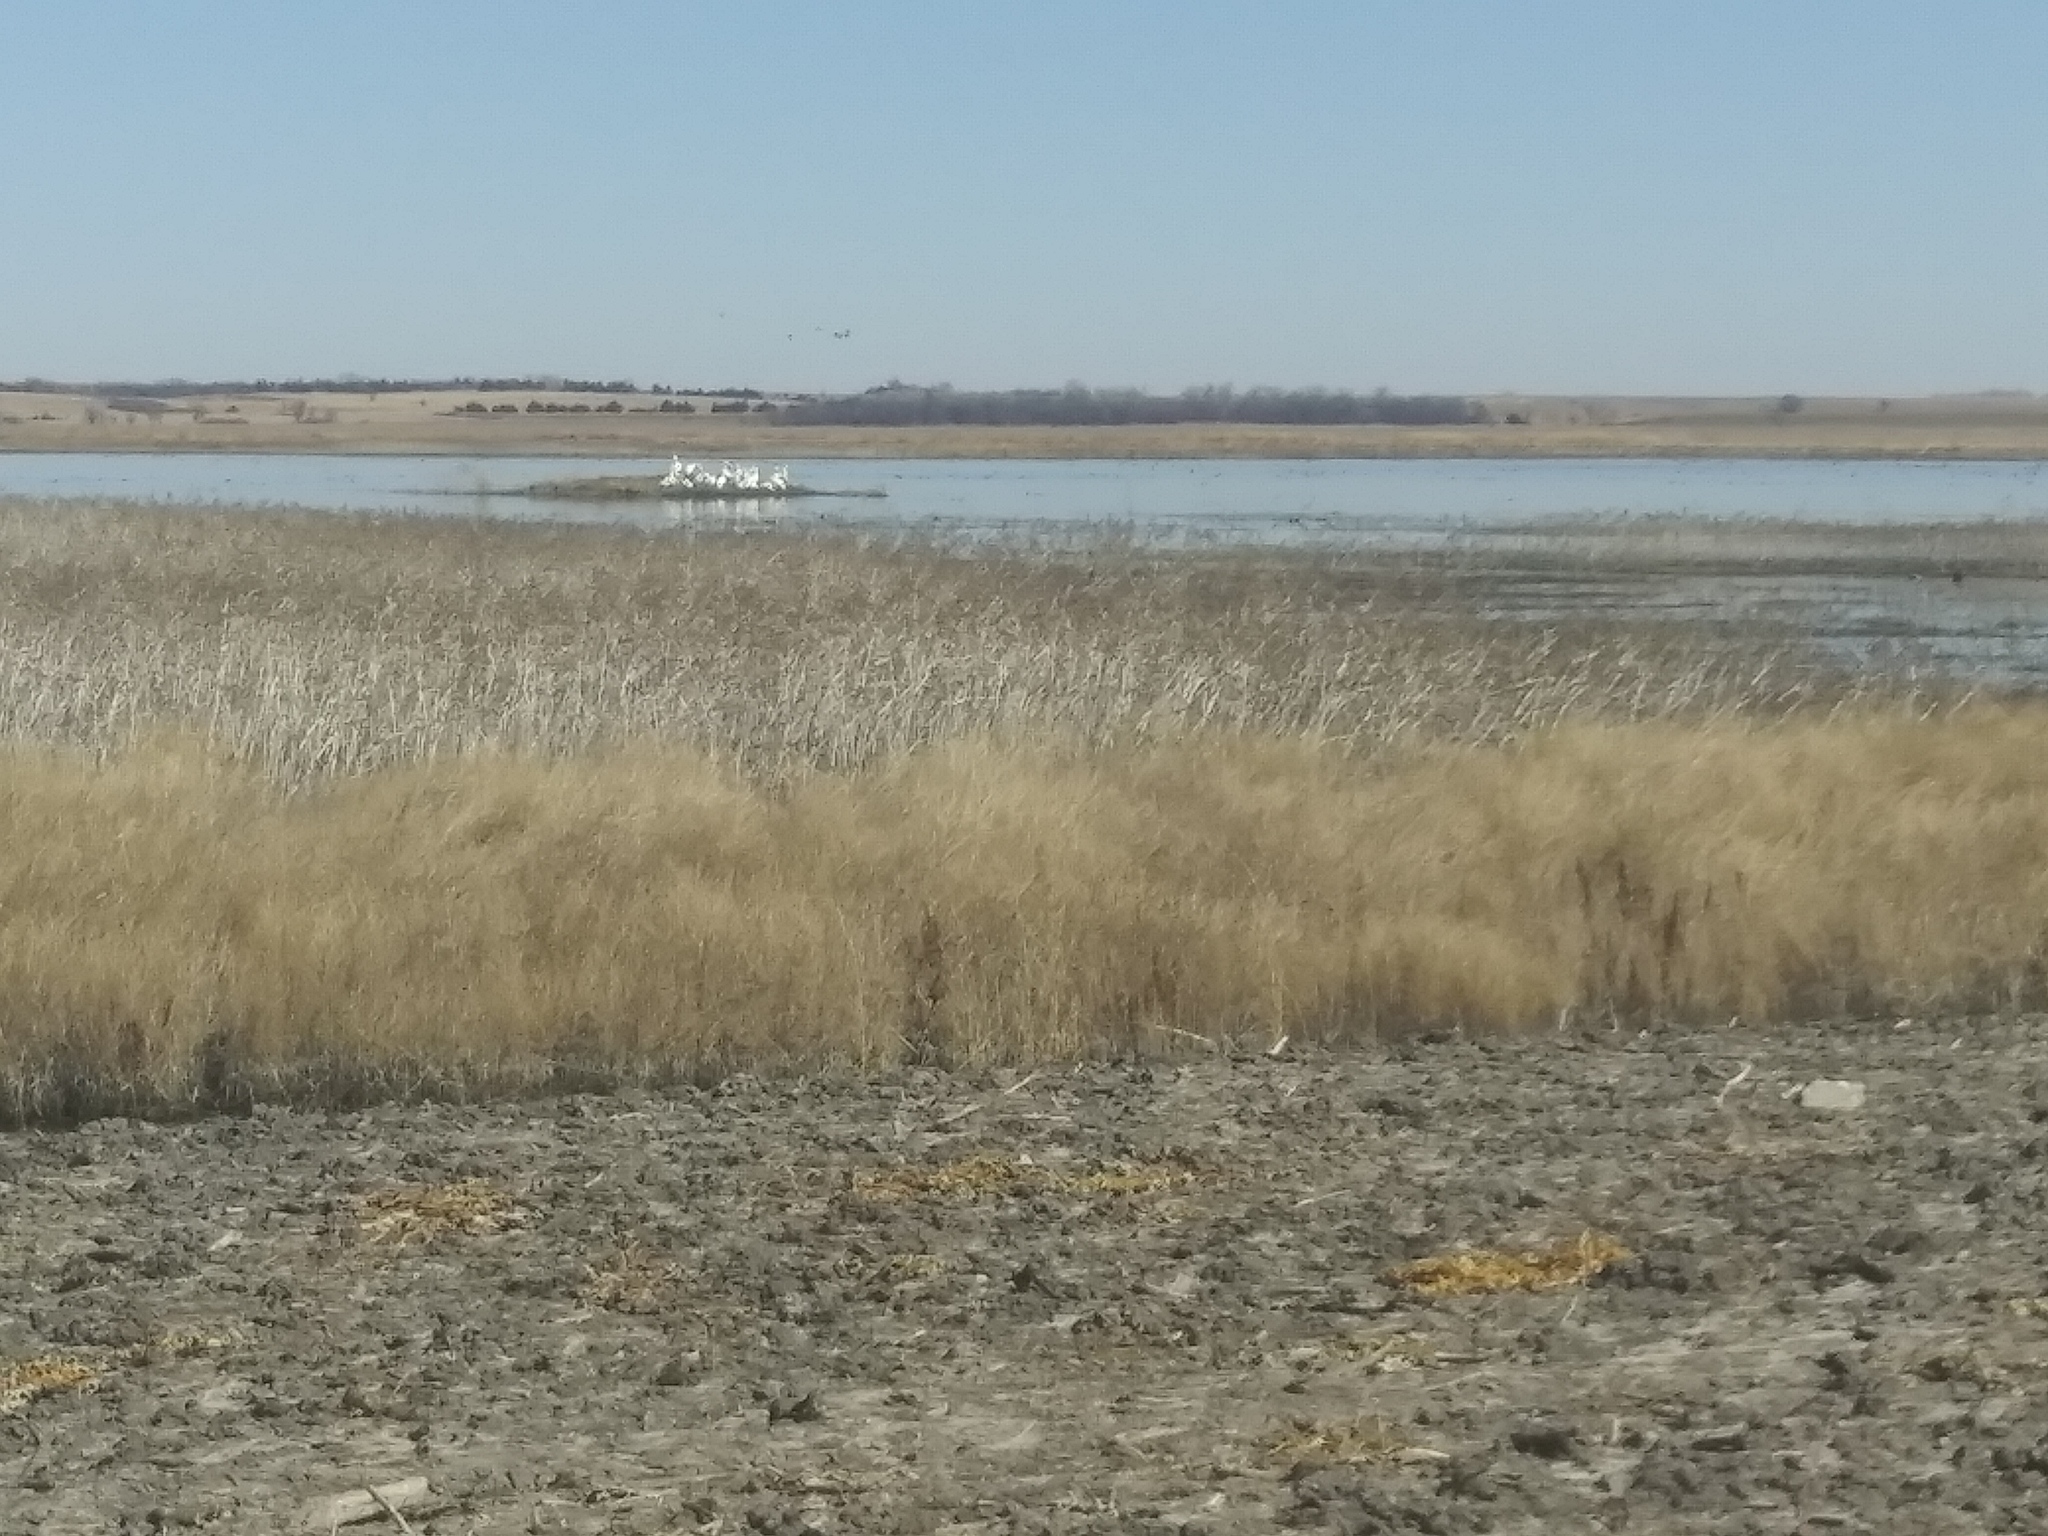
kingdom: Animalia
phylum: Chordata
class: Aves
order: Pelecaniformes
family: Pelecanidae
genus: Pelecanus
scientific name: Pelecanus erythrorhynchos
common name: American white pelican
